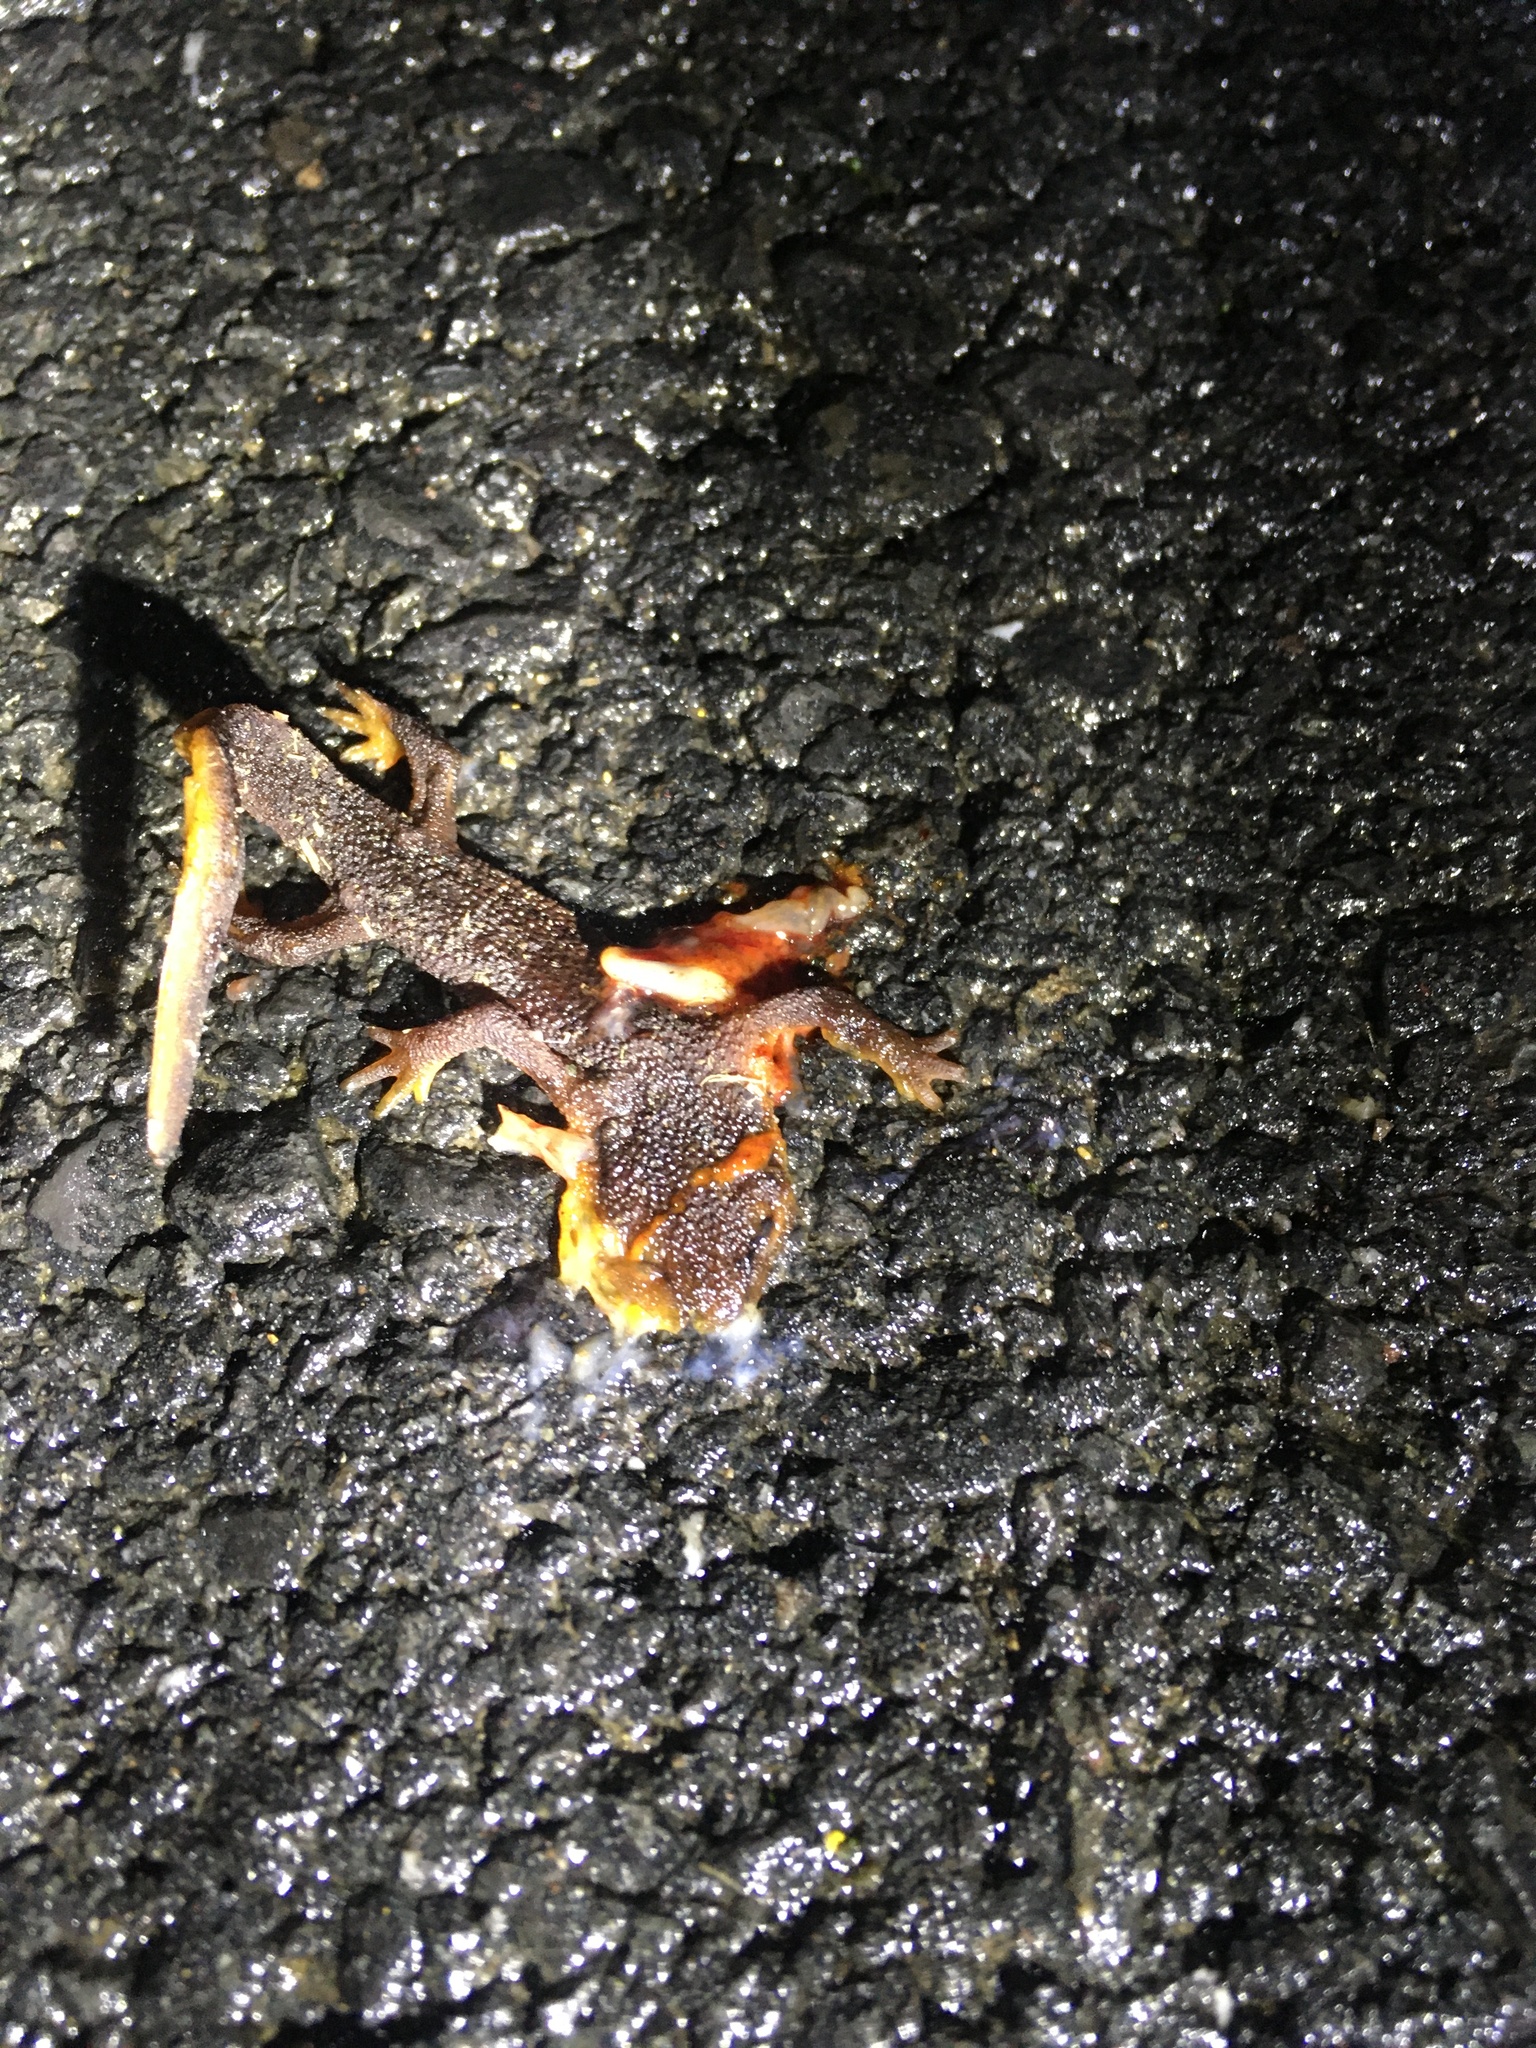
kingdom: Animalia
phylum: Chordata
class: Amphibia
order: Caudata
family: Salamandridae
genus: Taricha
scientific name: Taricha
